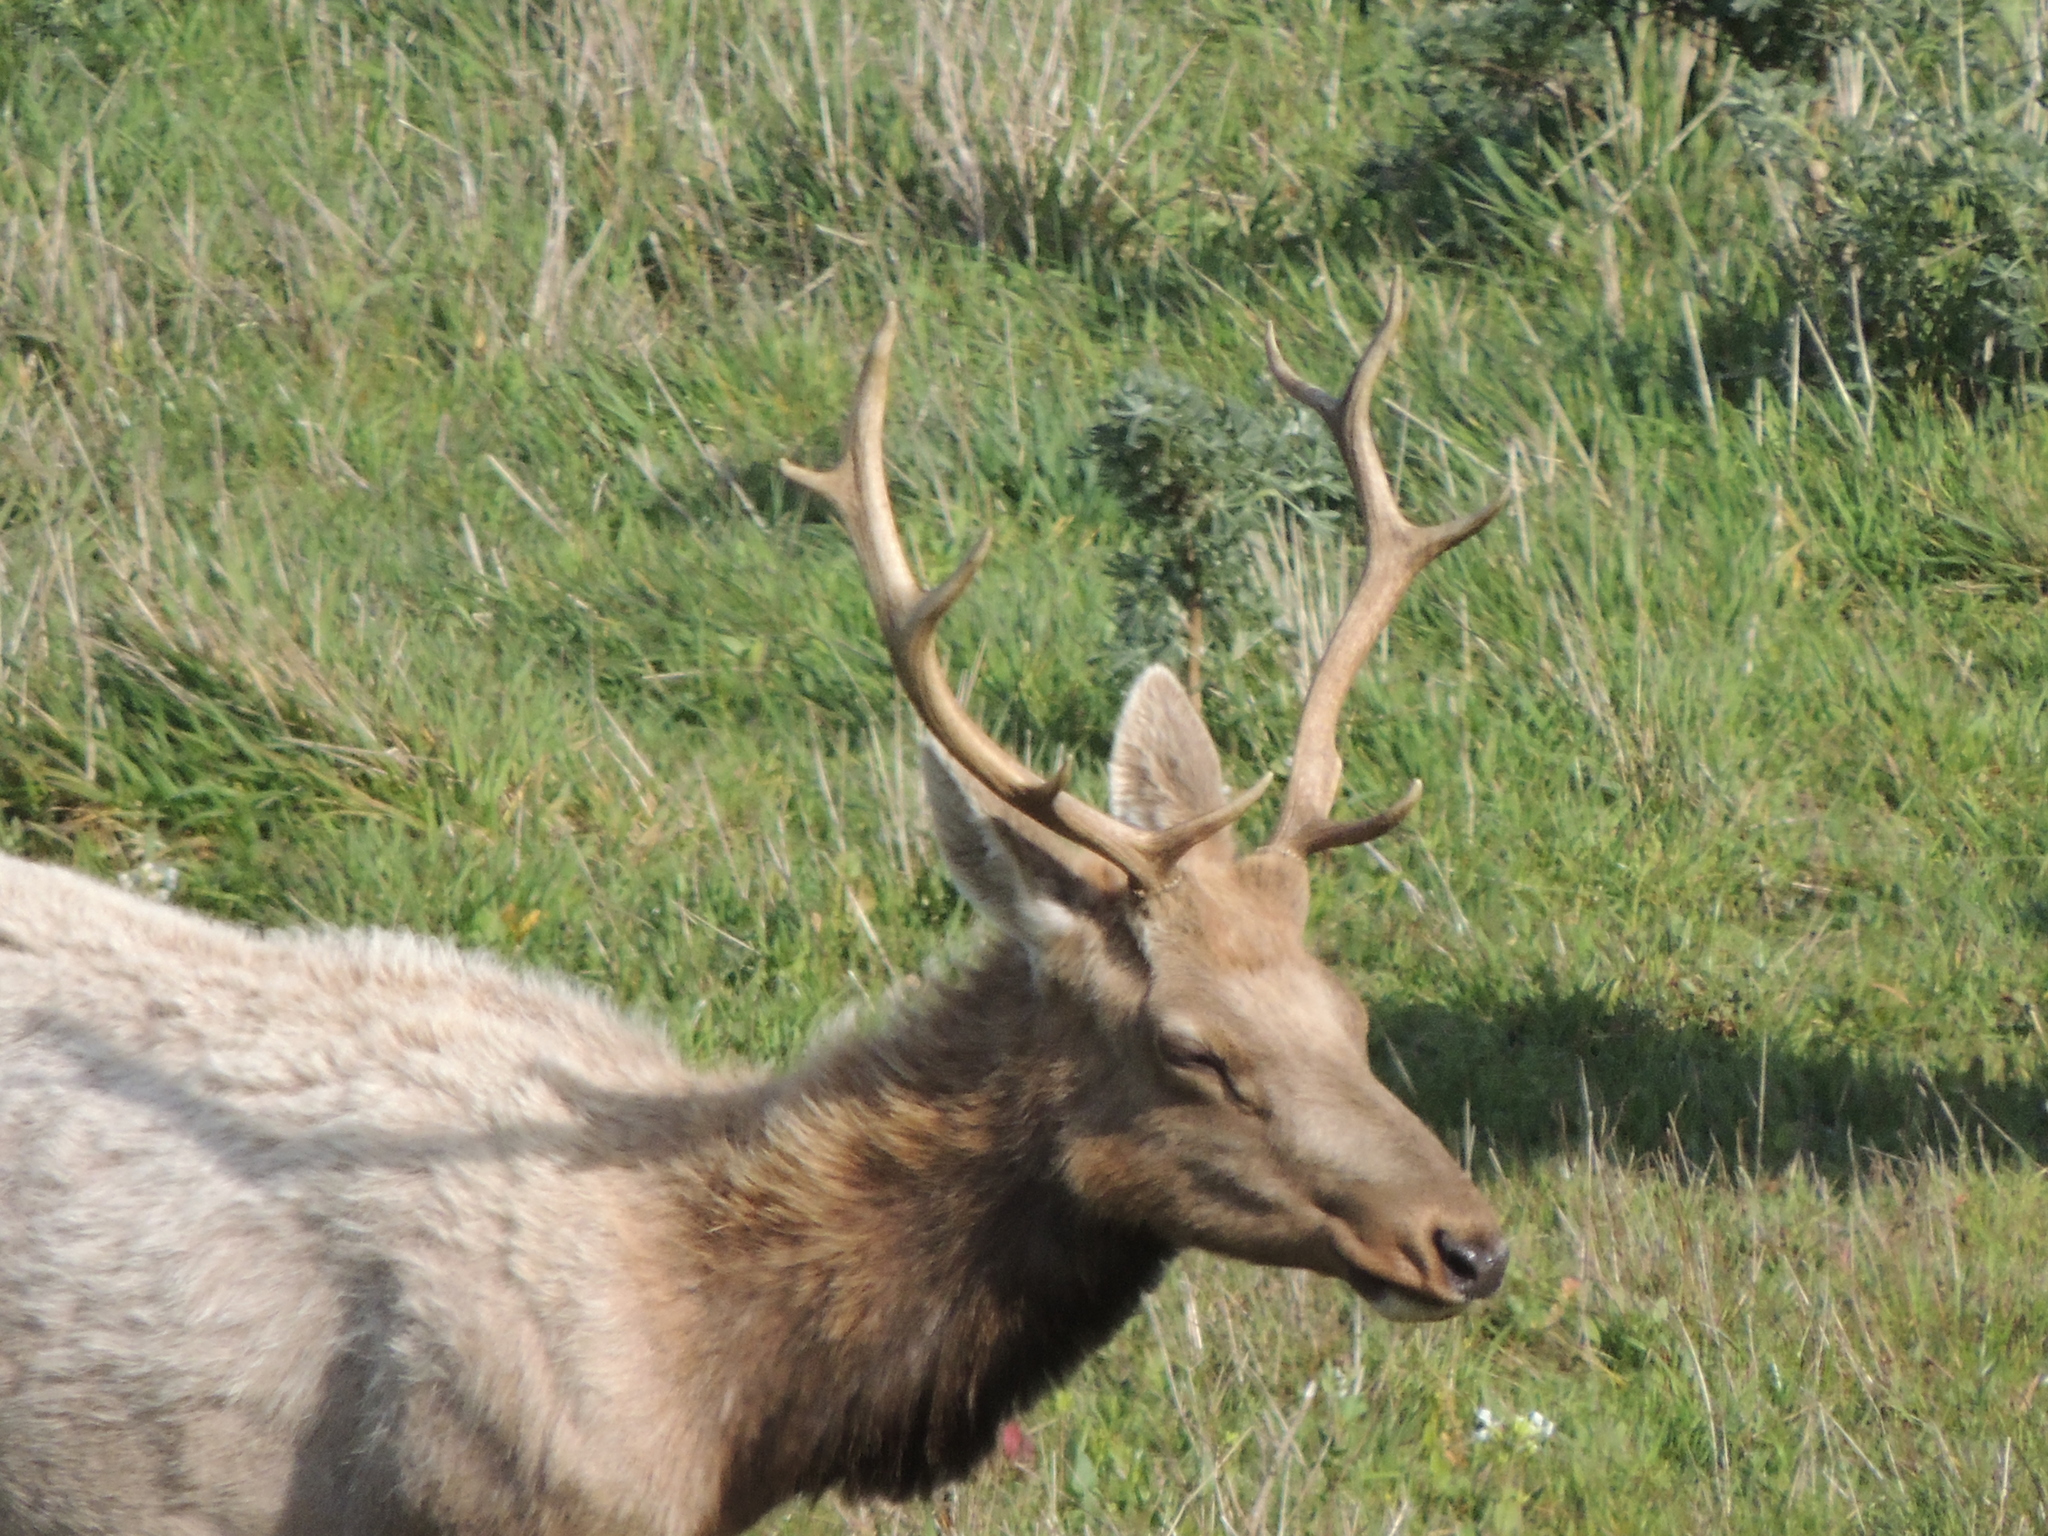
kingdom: Animalia
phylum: Chordata
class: Mammalia
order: Artiodactyla
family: Cervidae
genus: Cervus
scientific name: Cervus elaphus
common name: Red deer
